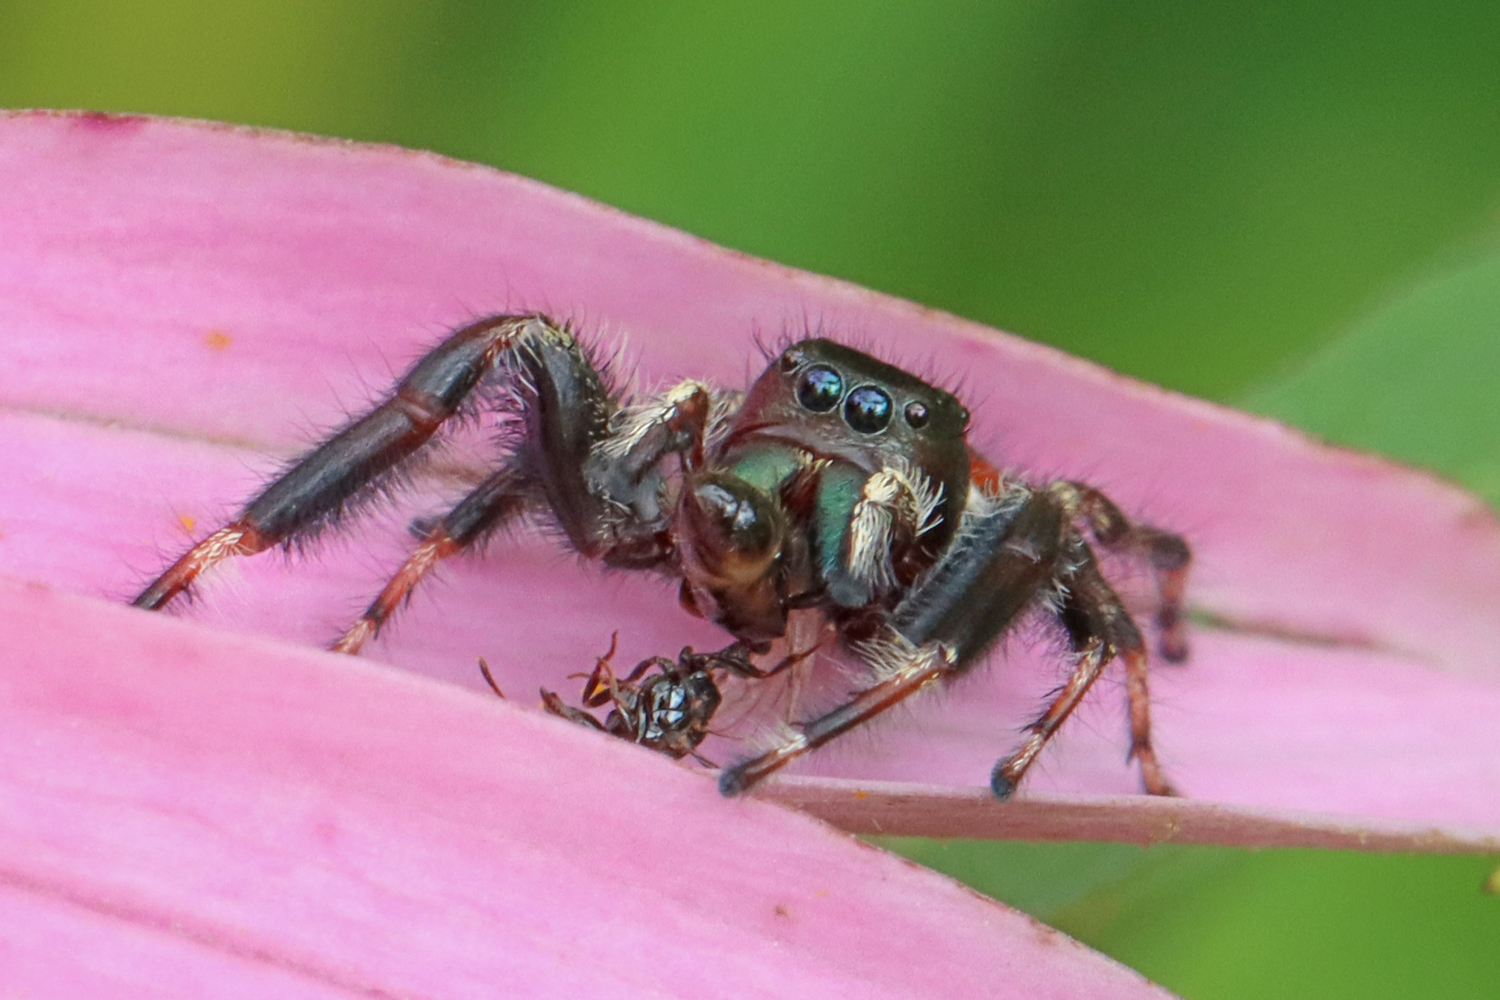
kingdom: Animalia
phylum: Arthropoda
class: Arachnida
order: Araneae
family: Salticidae
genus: Phidippus
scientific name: Phidippus clarus
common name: Brilliant jumping spider
